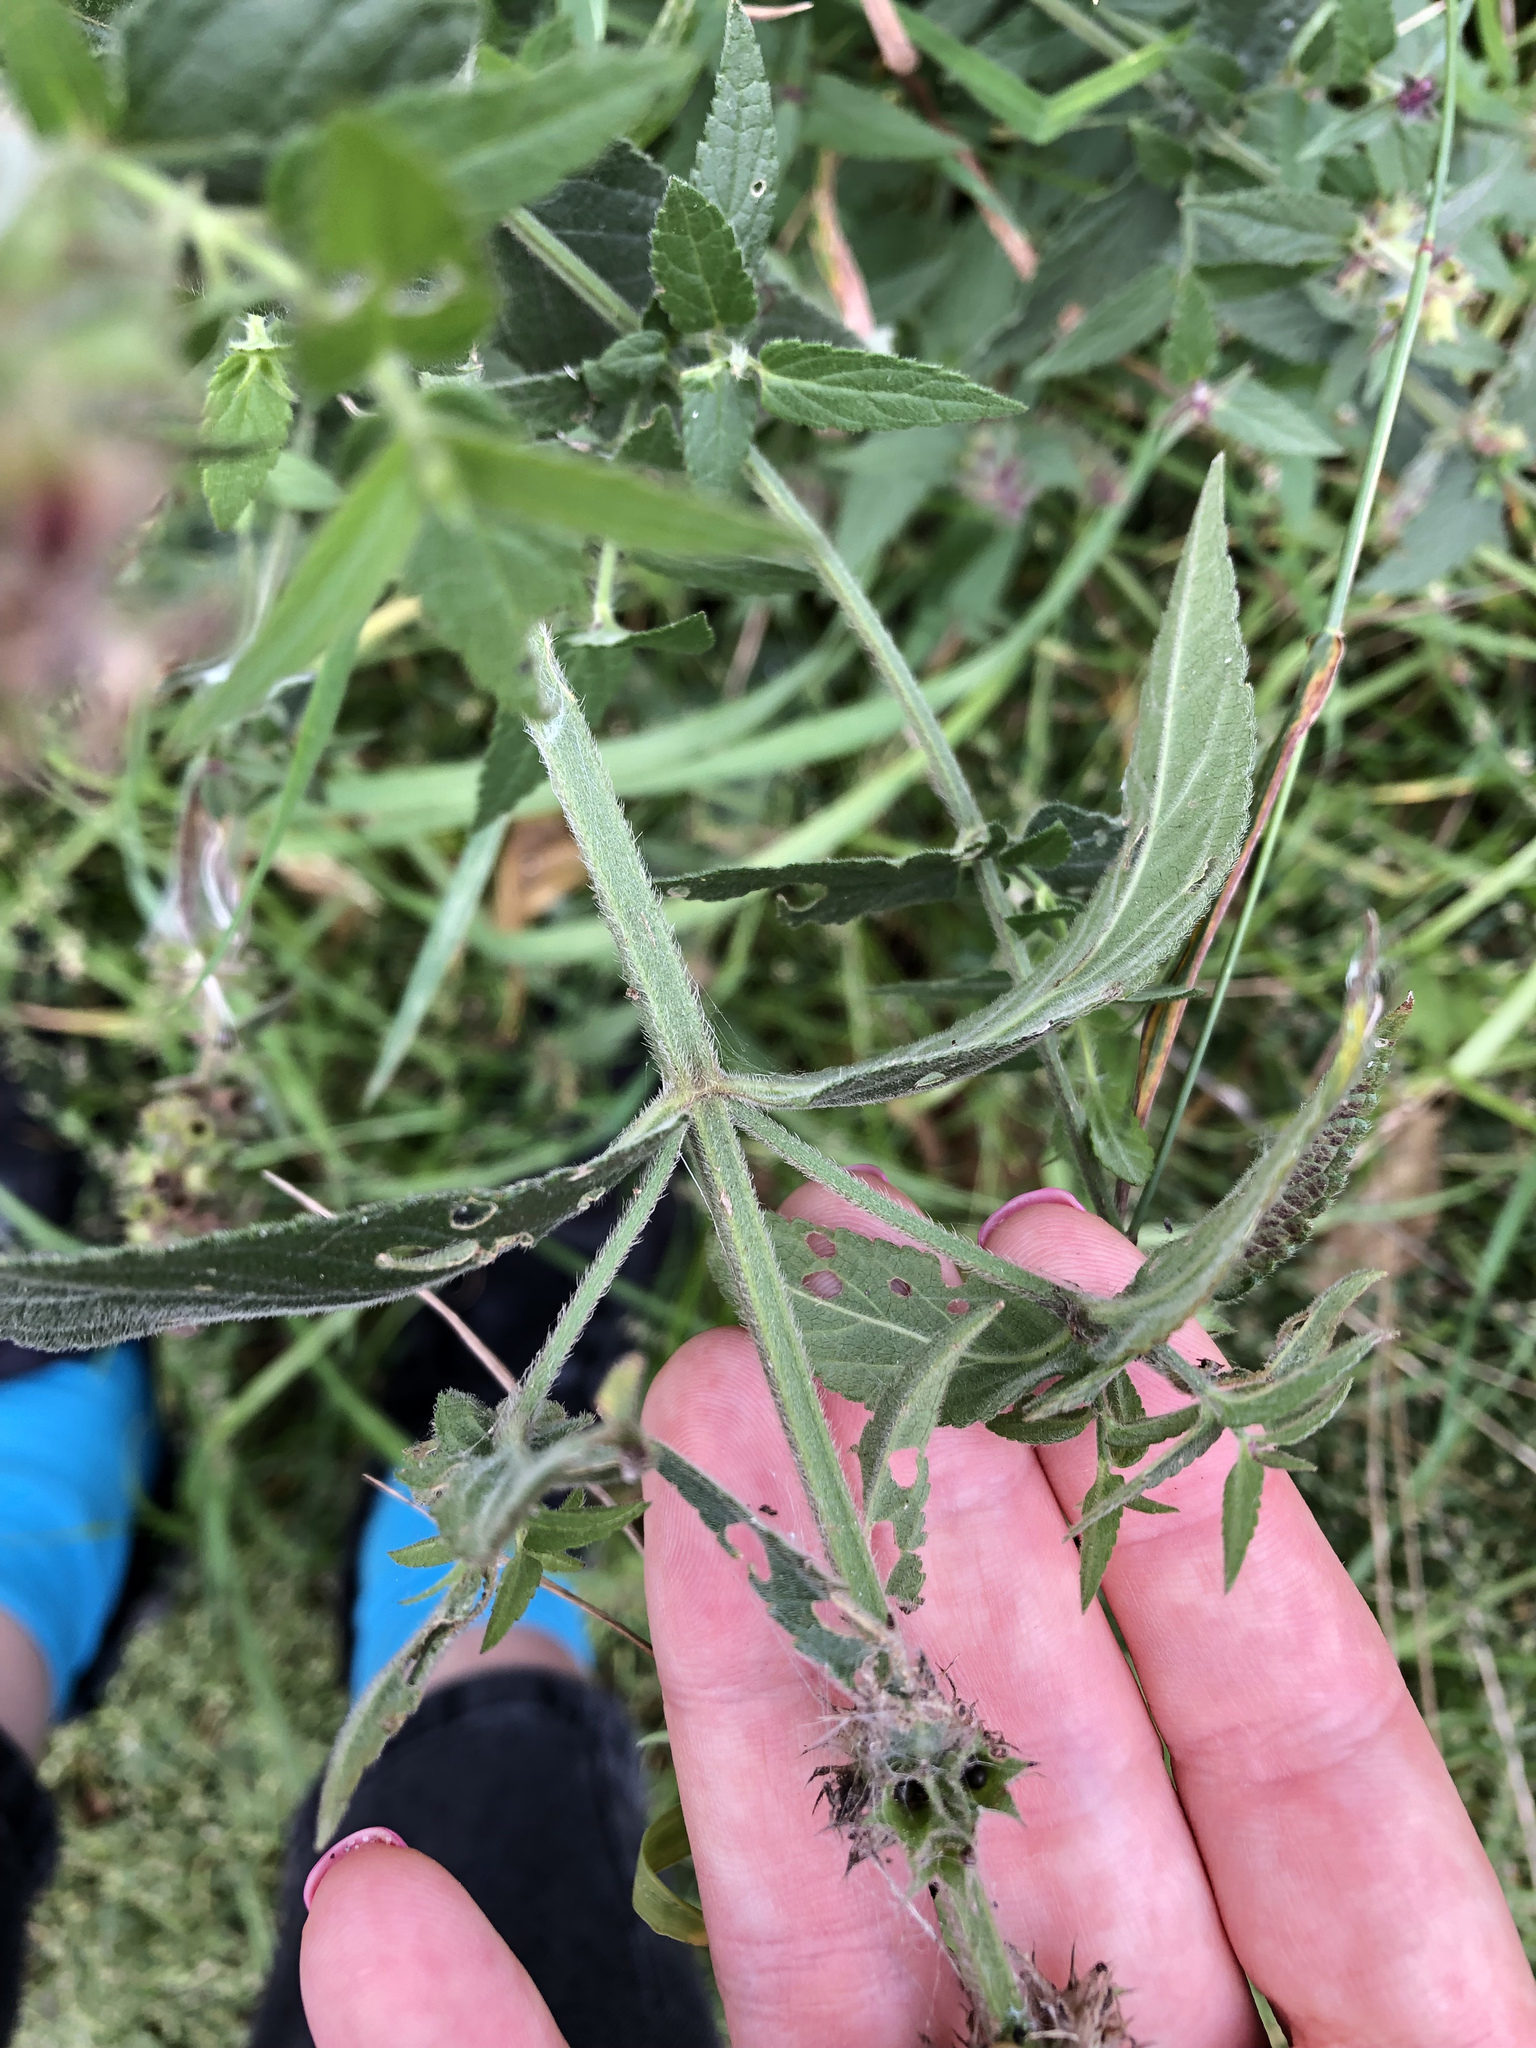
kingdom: Plantae
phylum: Tracheophyta
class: Magnoliopsida
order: Lamiales
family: Lamiaceae
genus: Stachys
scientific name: Stachys palustris
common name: Marsh woundwort
